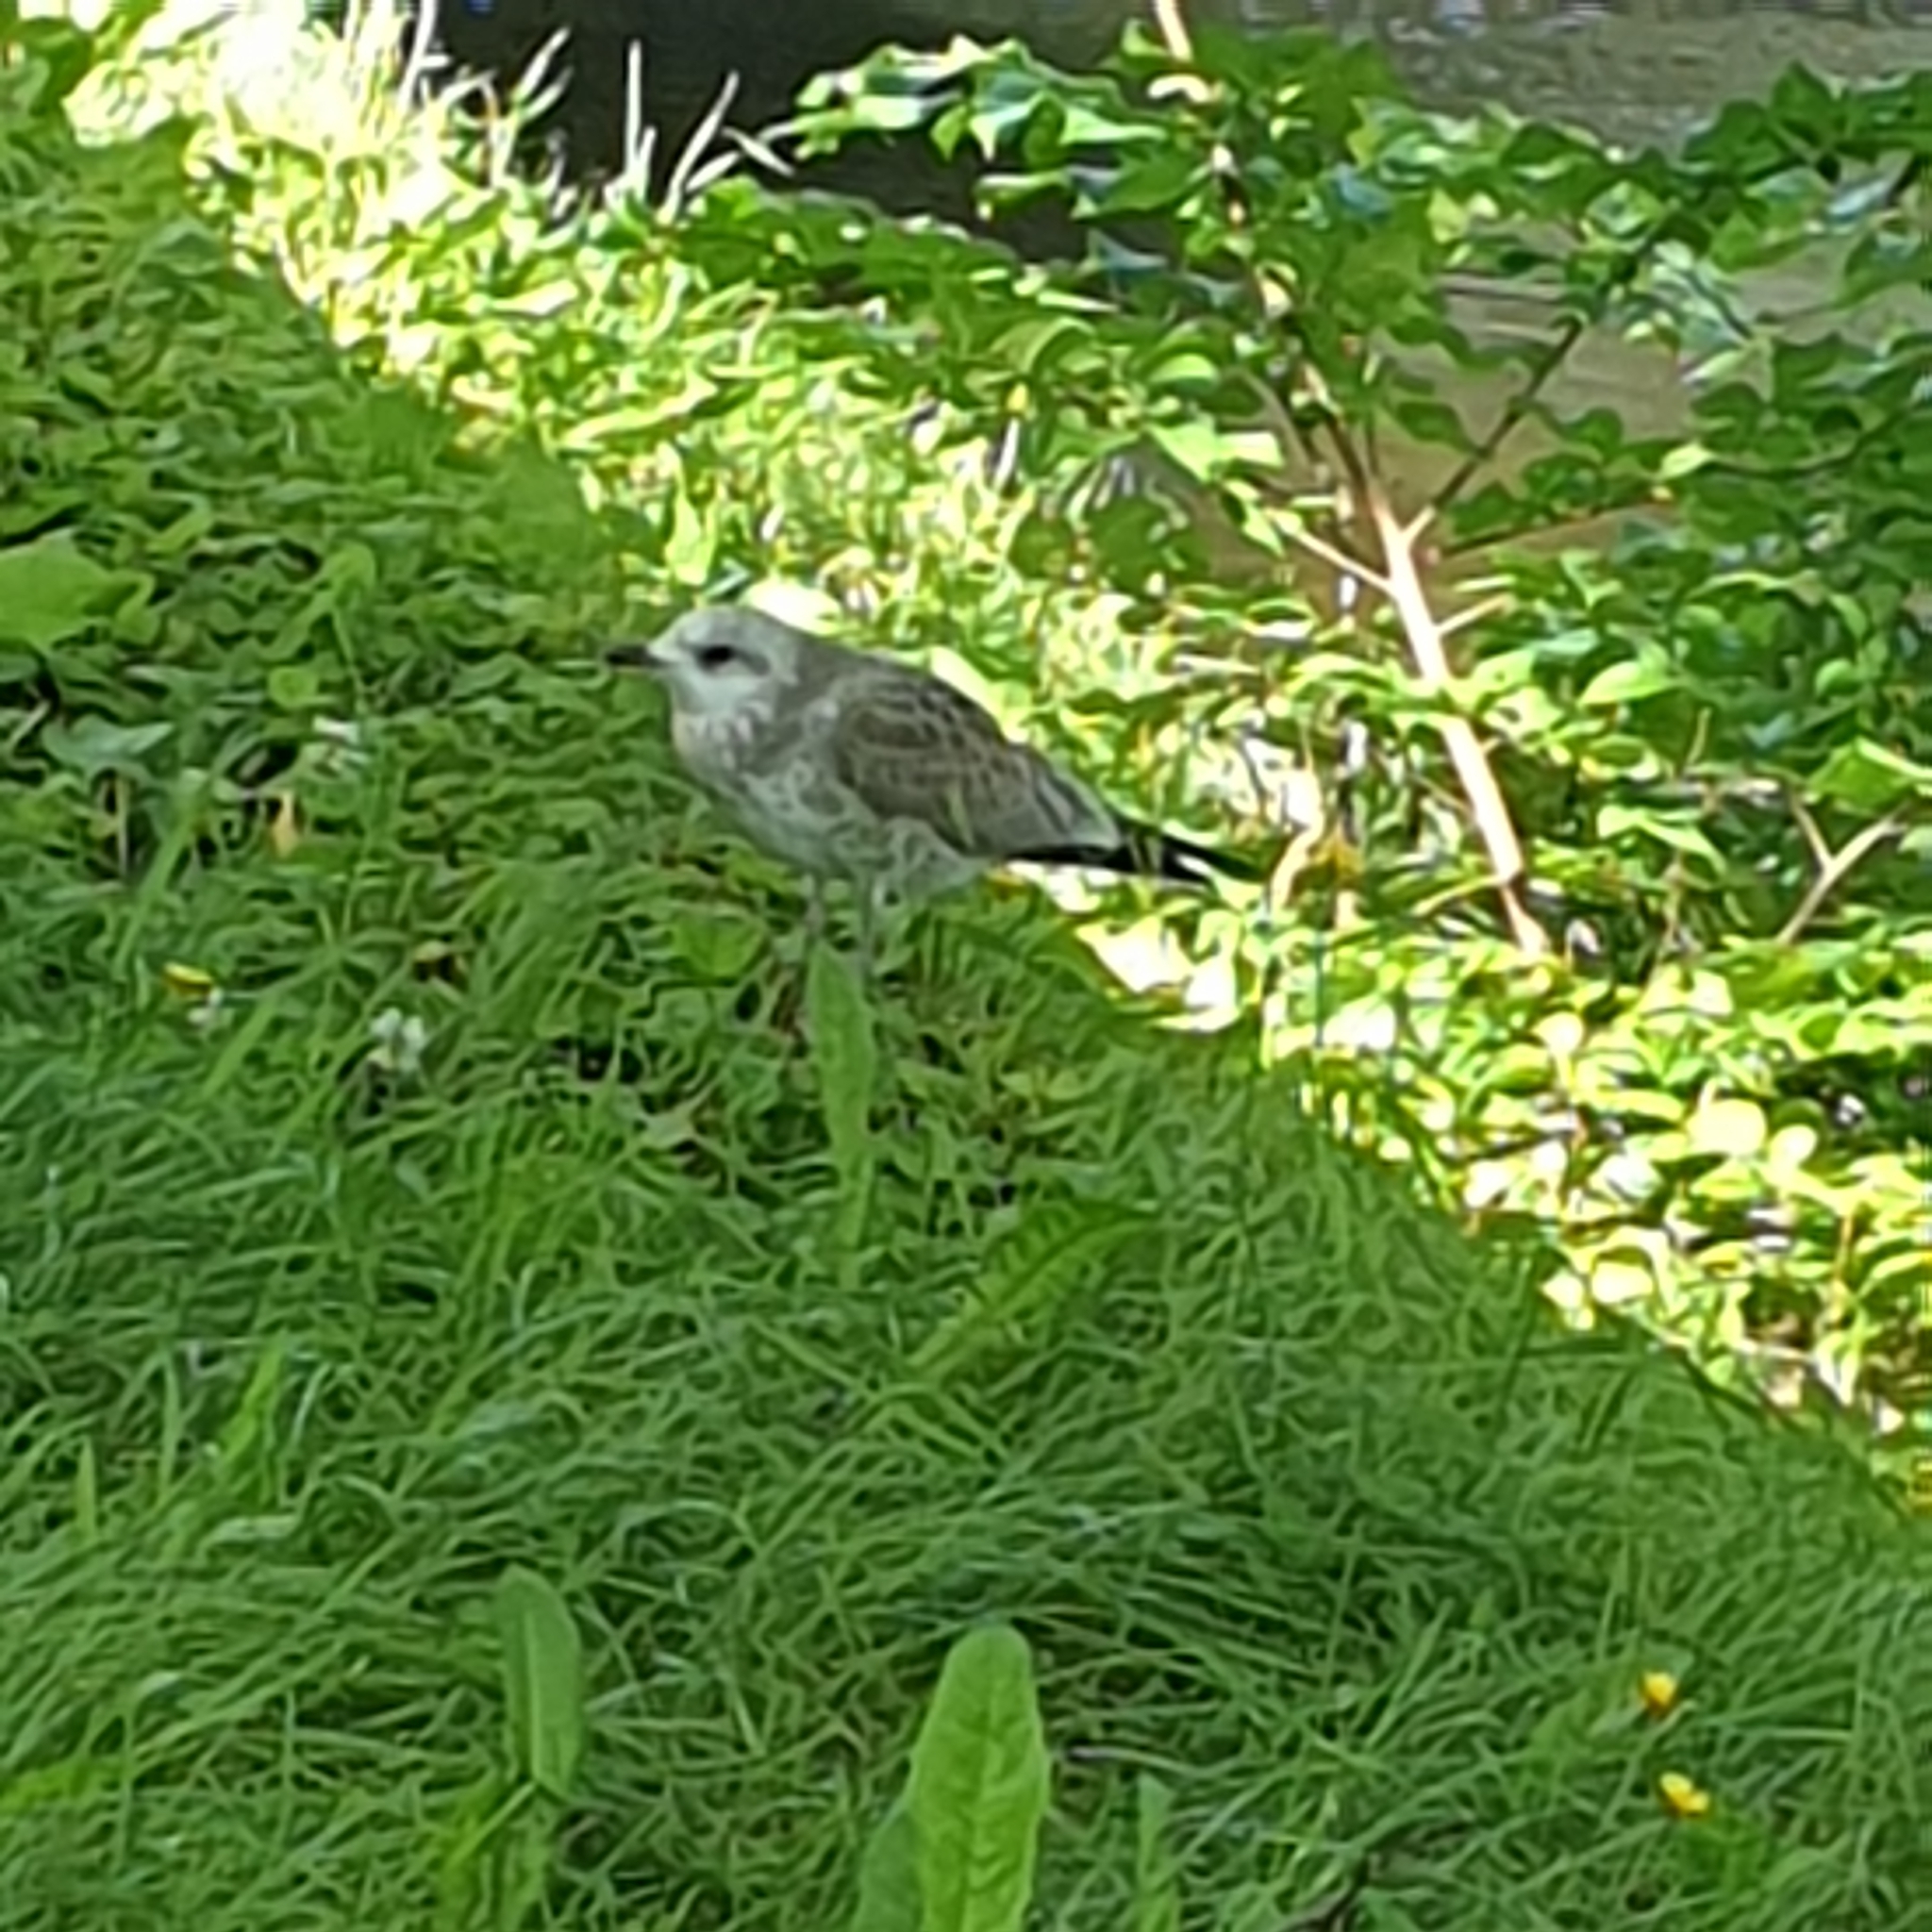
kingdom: Animalia
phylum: Chordata
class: Aves
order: Charadriiformes
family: Laridae
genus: Larus
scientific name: Larus canus
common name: Mew gull
